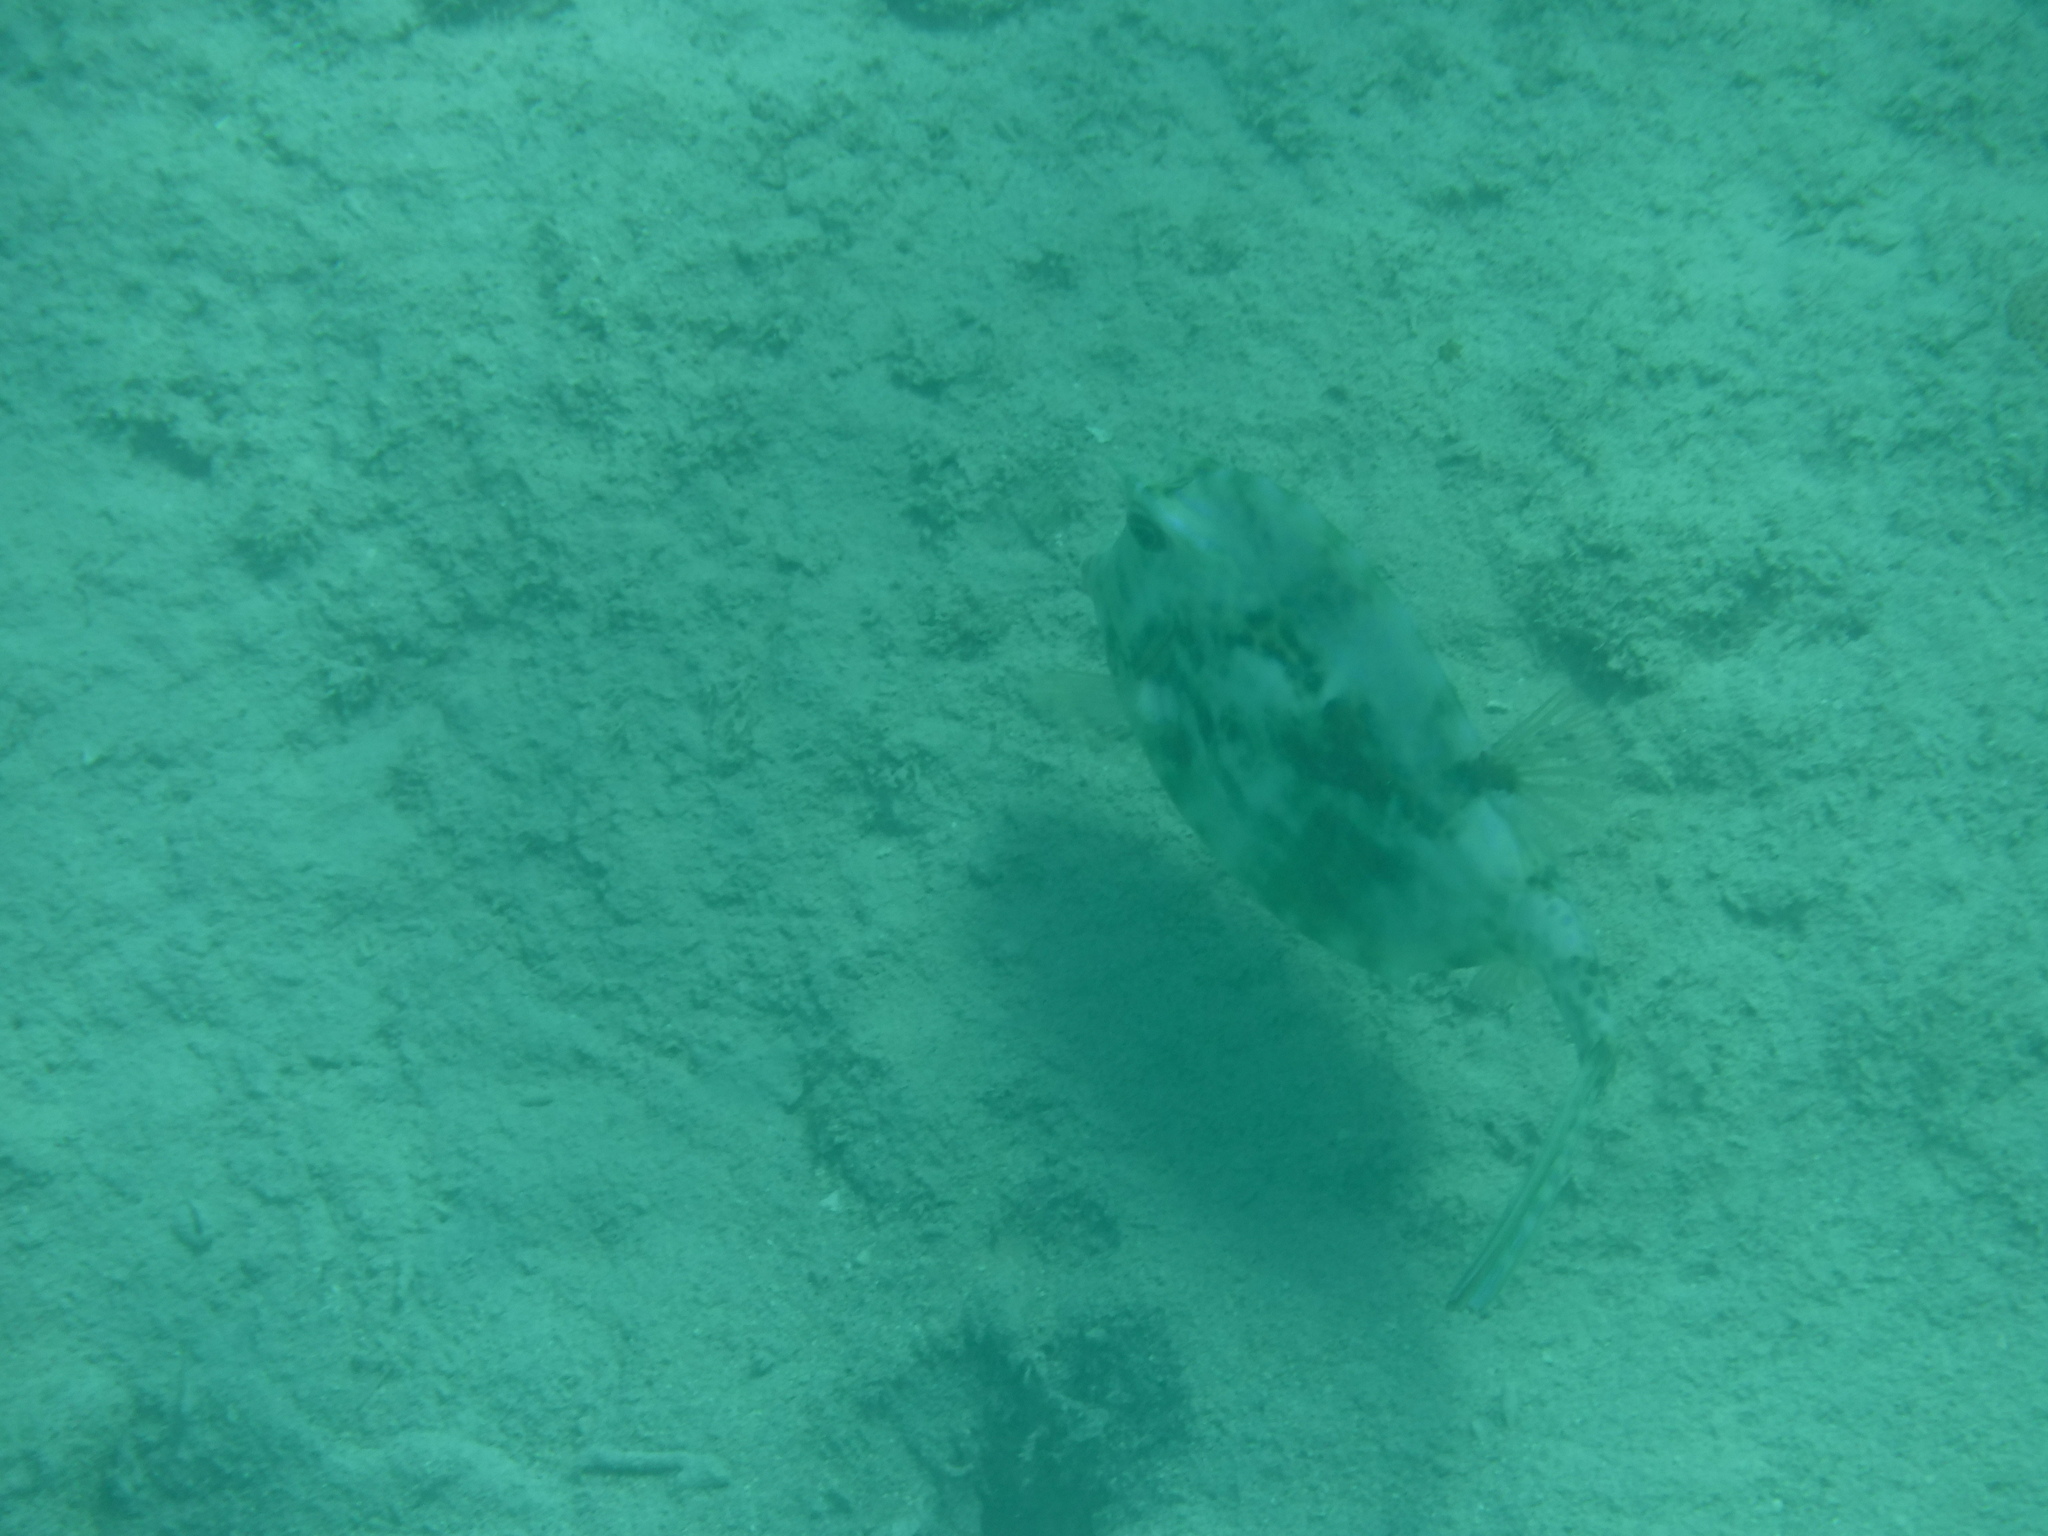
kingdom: Animalia
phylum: Chordata
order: Tetraodontiformes
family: Ostraciidae
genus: Acanthostracion
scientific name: Acanthostracion quadricornis
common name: Scrawled cowfish
